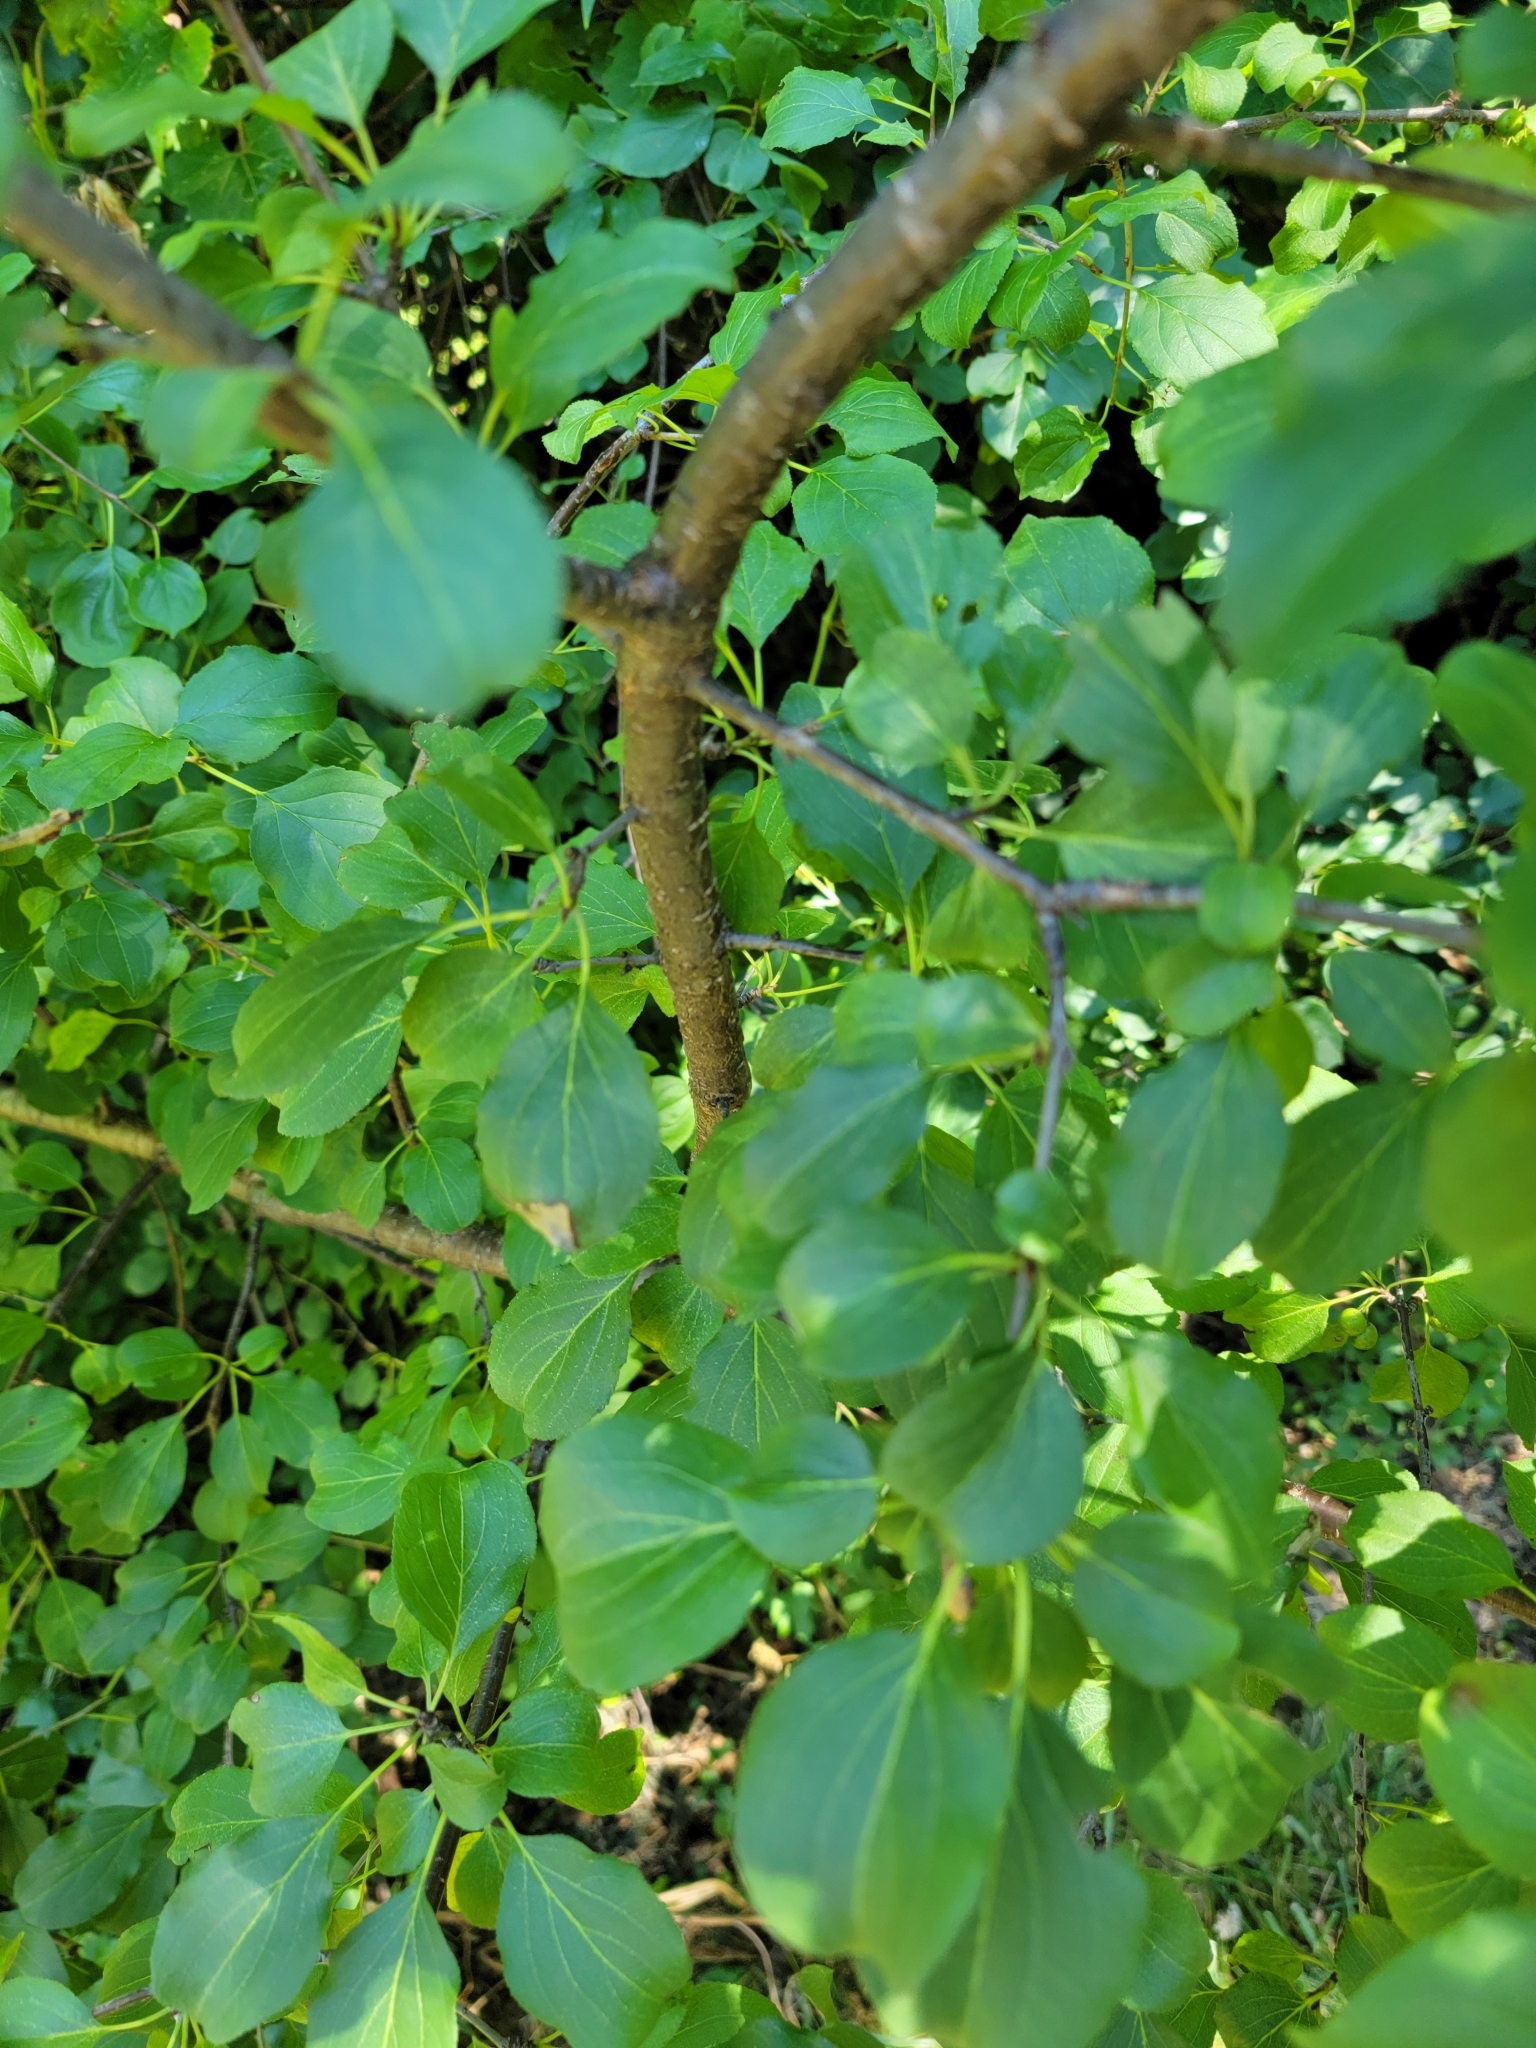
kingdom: Plantae
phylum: Tracheophyta
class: Magnoliopsida
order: Rosales
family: Rhamnaceae
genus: Rhamnus
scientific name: Rhamnus cathartica
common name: Common buckthorn
